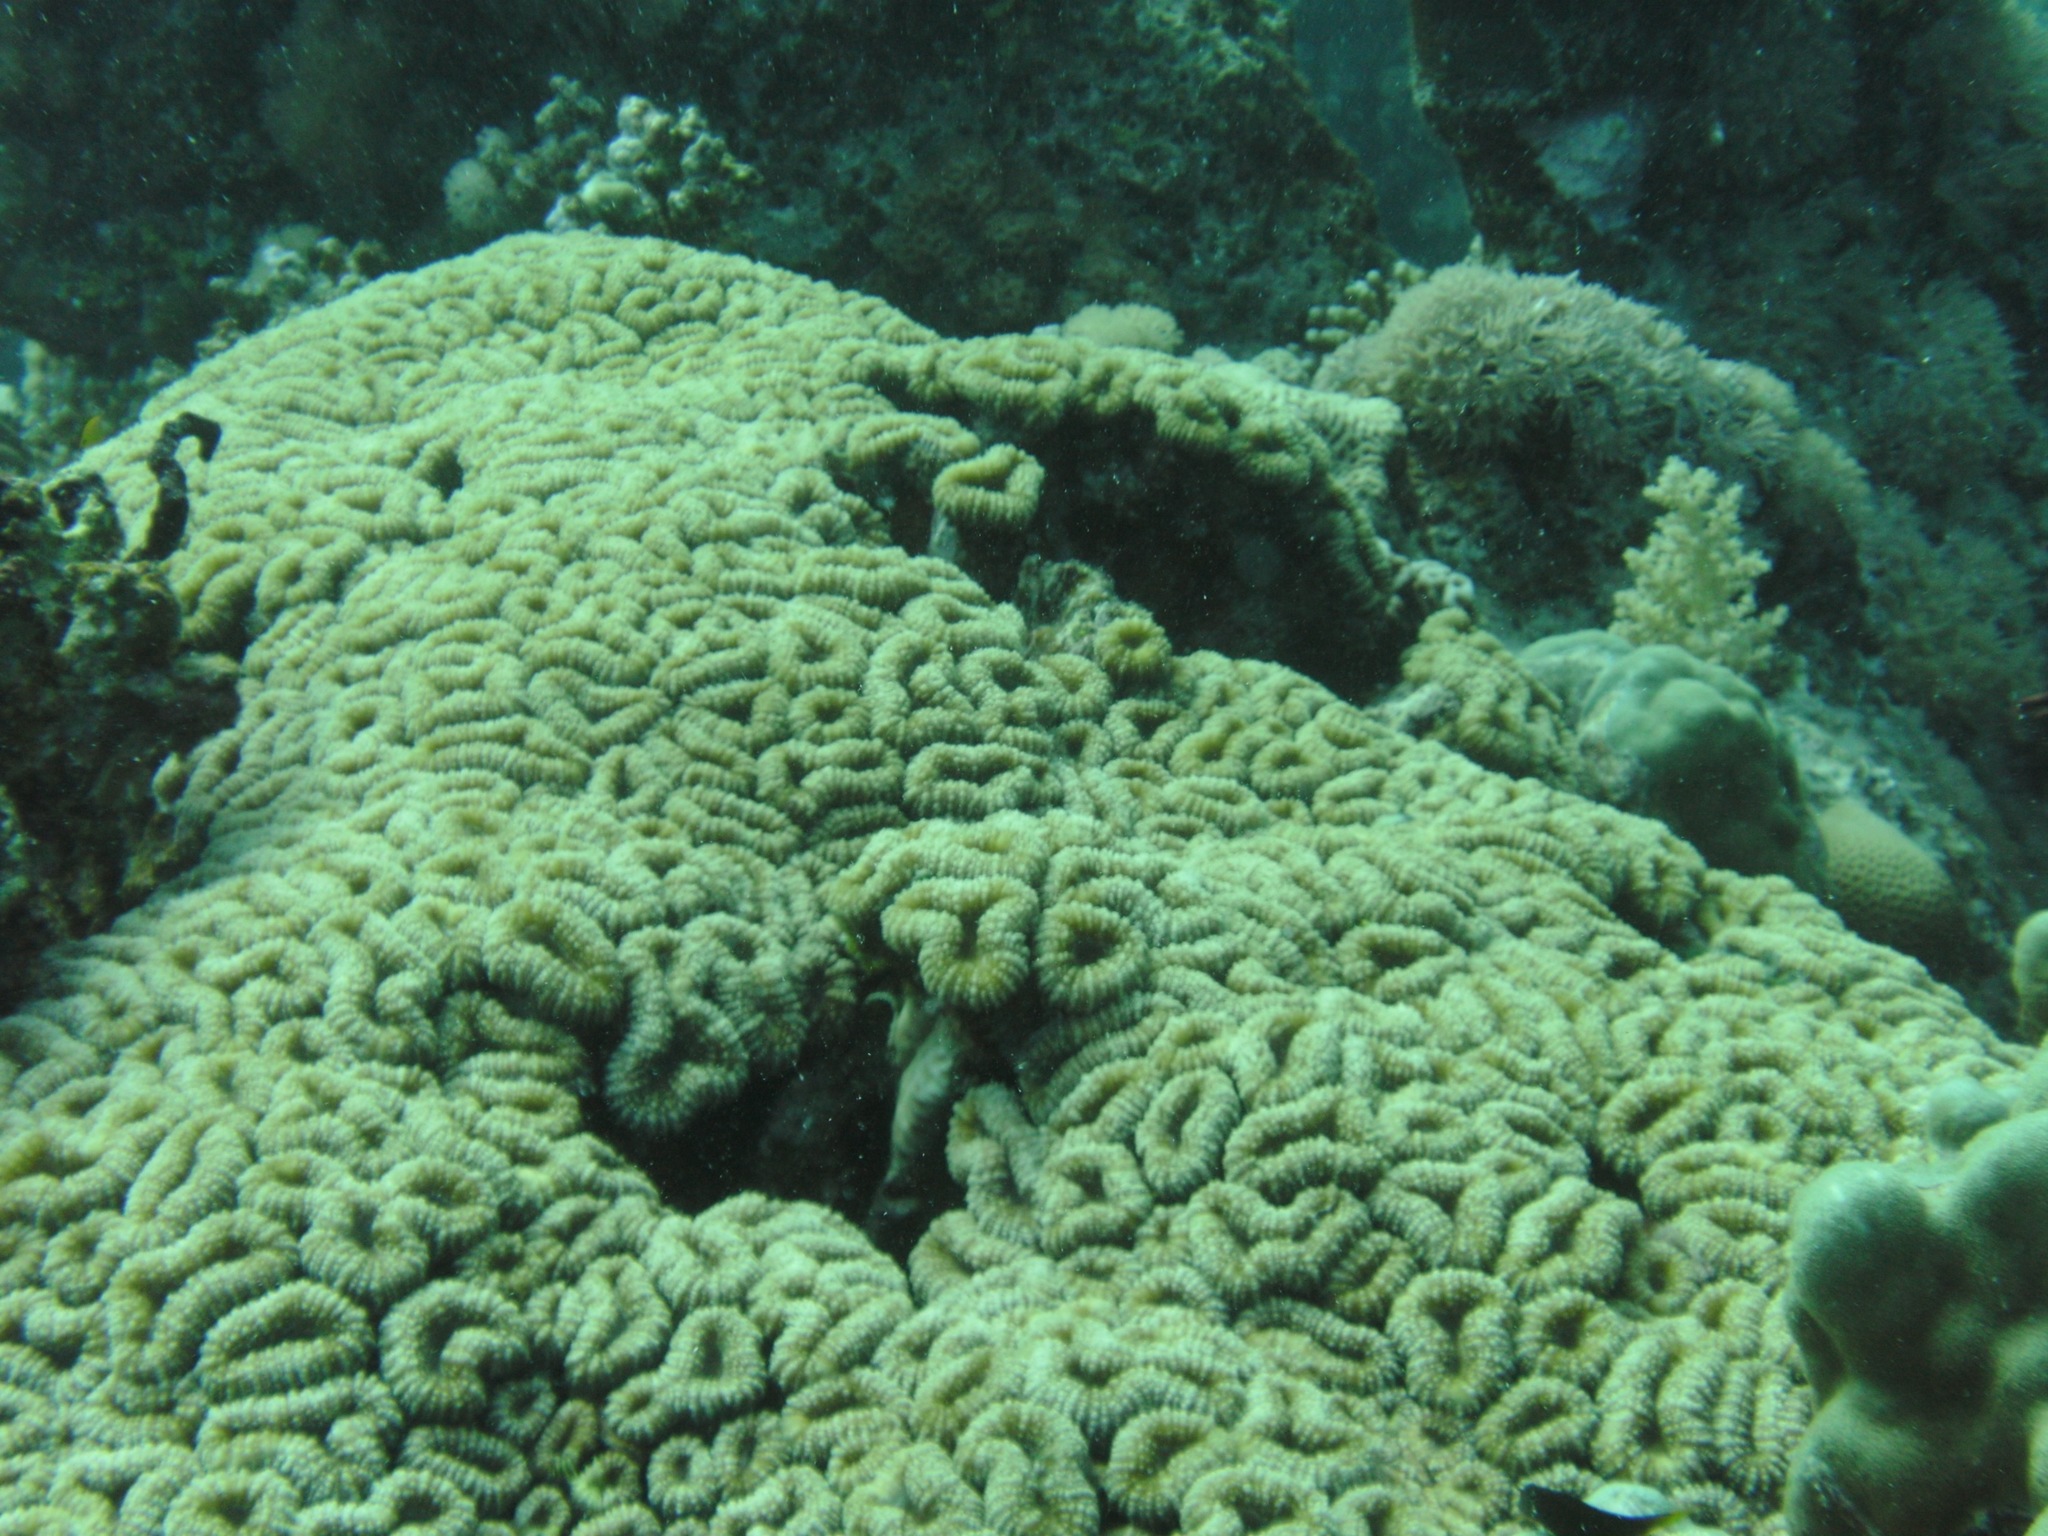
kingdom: Animalia
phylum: Cnidaria
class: Anthozoa
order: Scleractinia
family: Lobophylliidae
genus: Lobophyllia
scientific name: Lobophyllia corymbosa
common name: Lobed cactus coral
